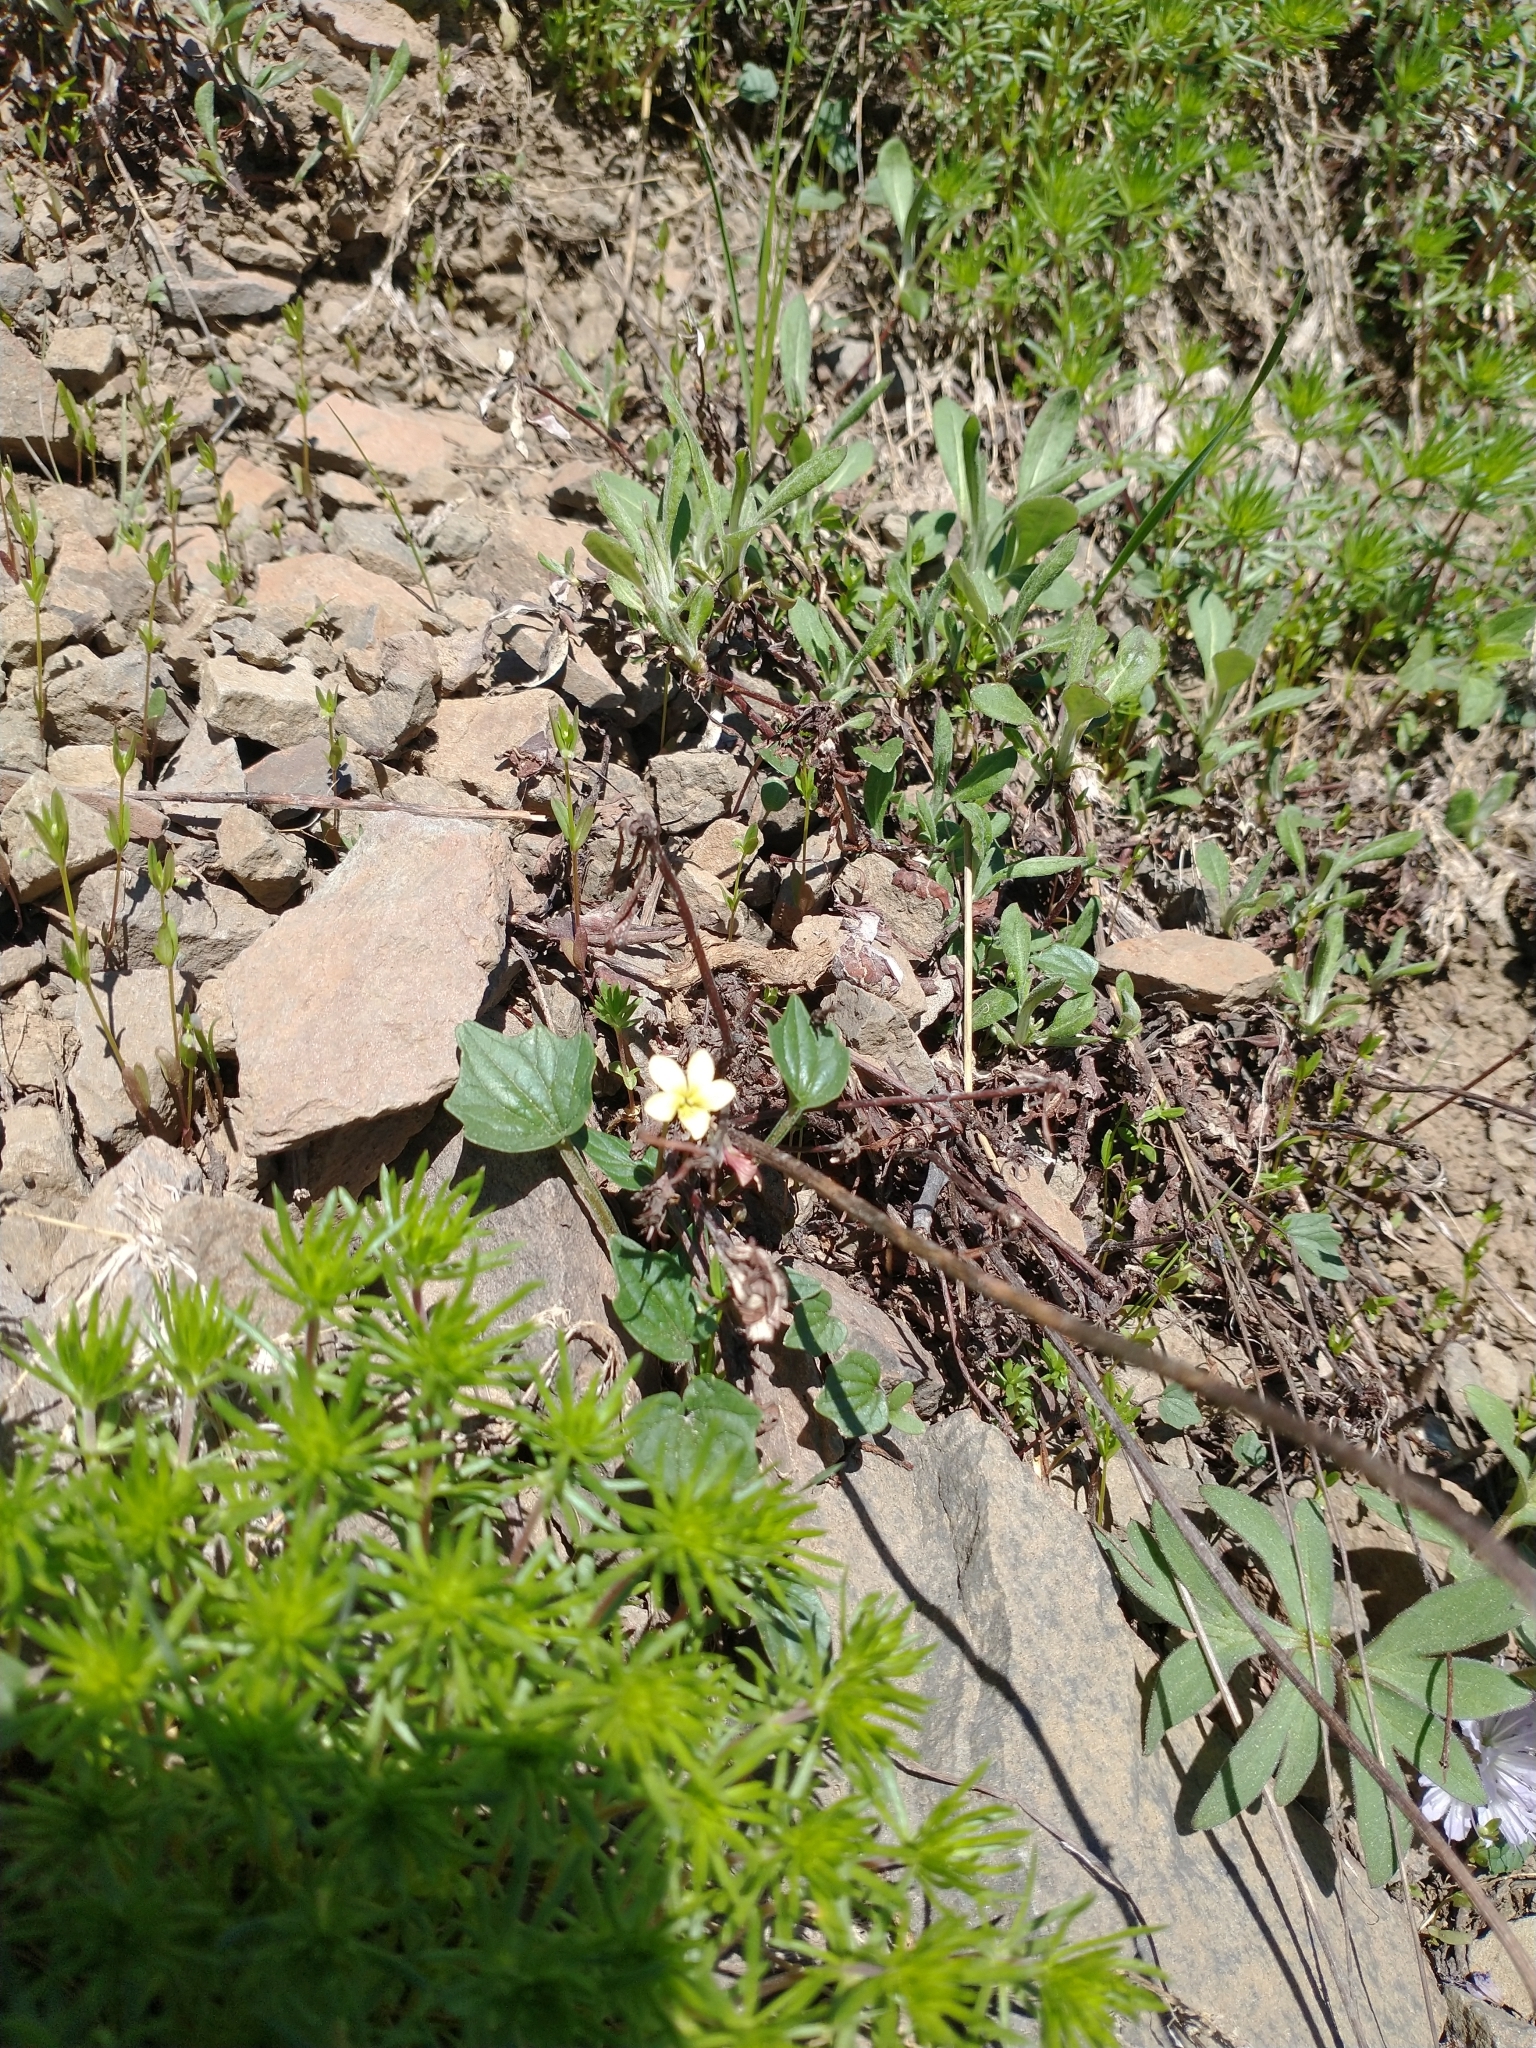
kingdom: Plantae
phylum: Tracheophyta
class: Magnoliopsida
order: Malpighiales
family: Violaceae
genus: Viola
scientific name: Viola purpurea
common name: Pine violet
